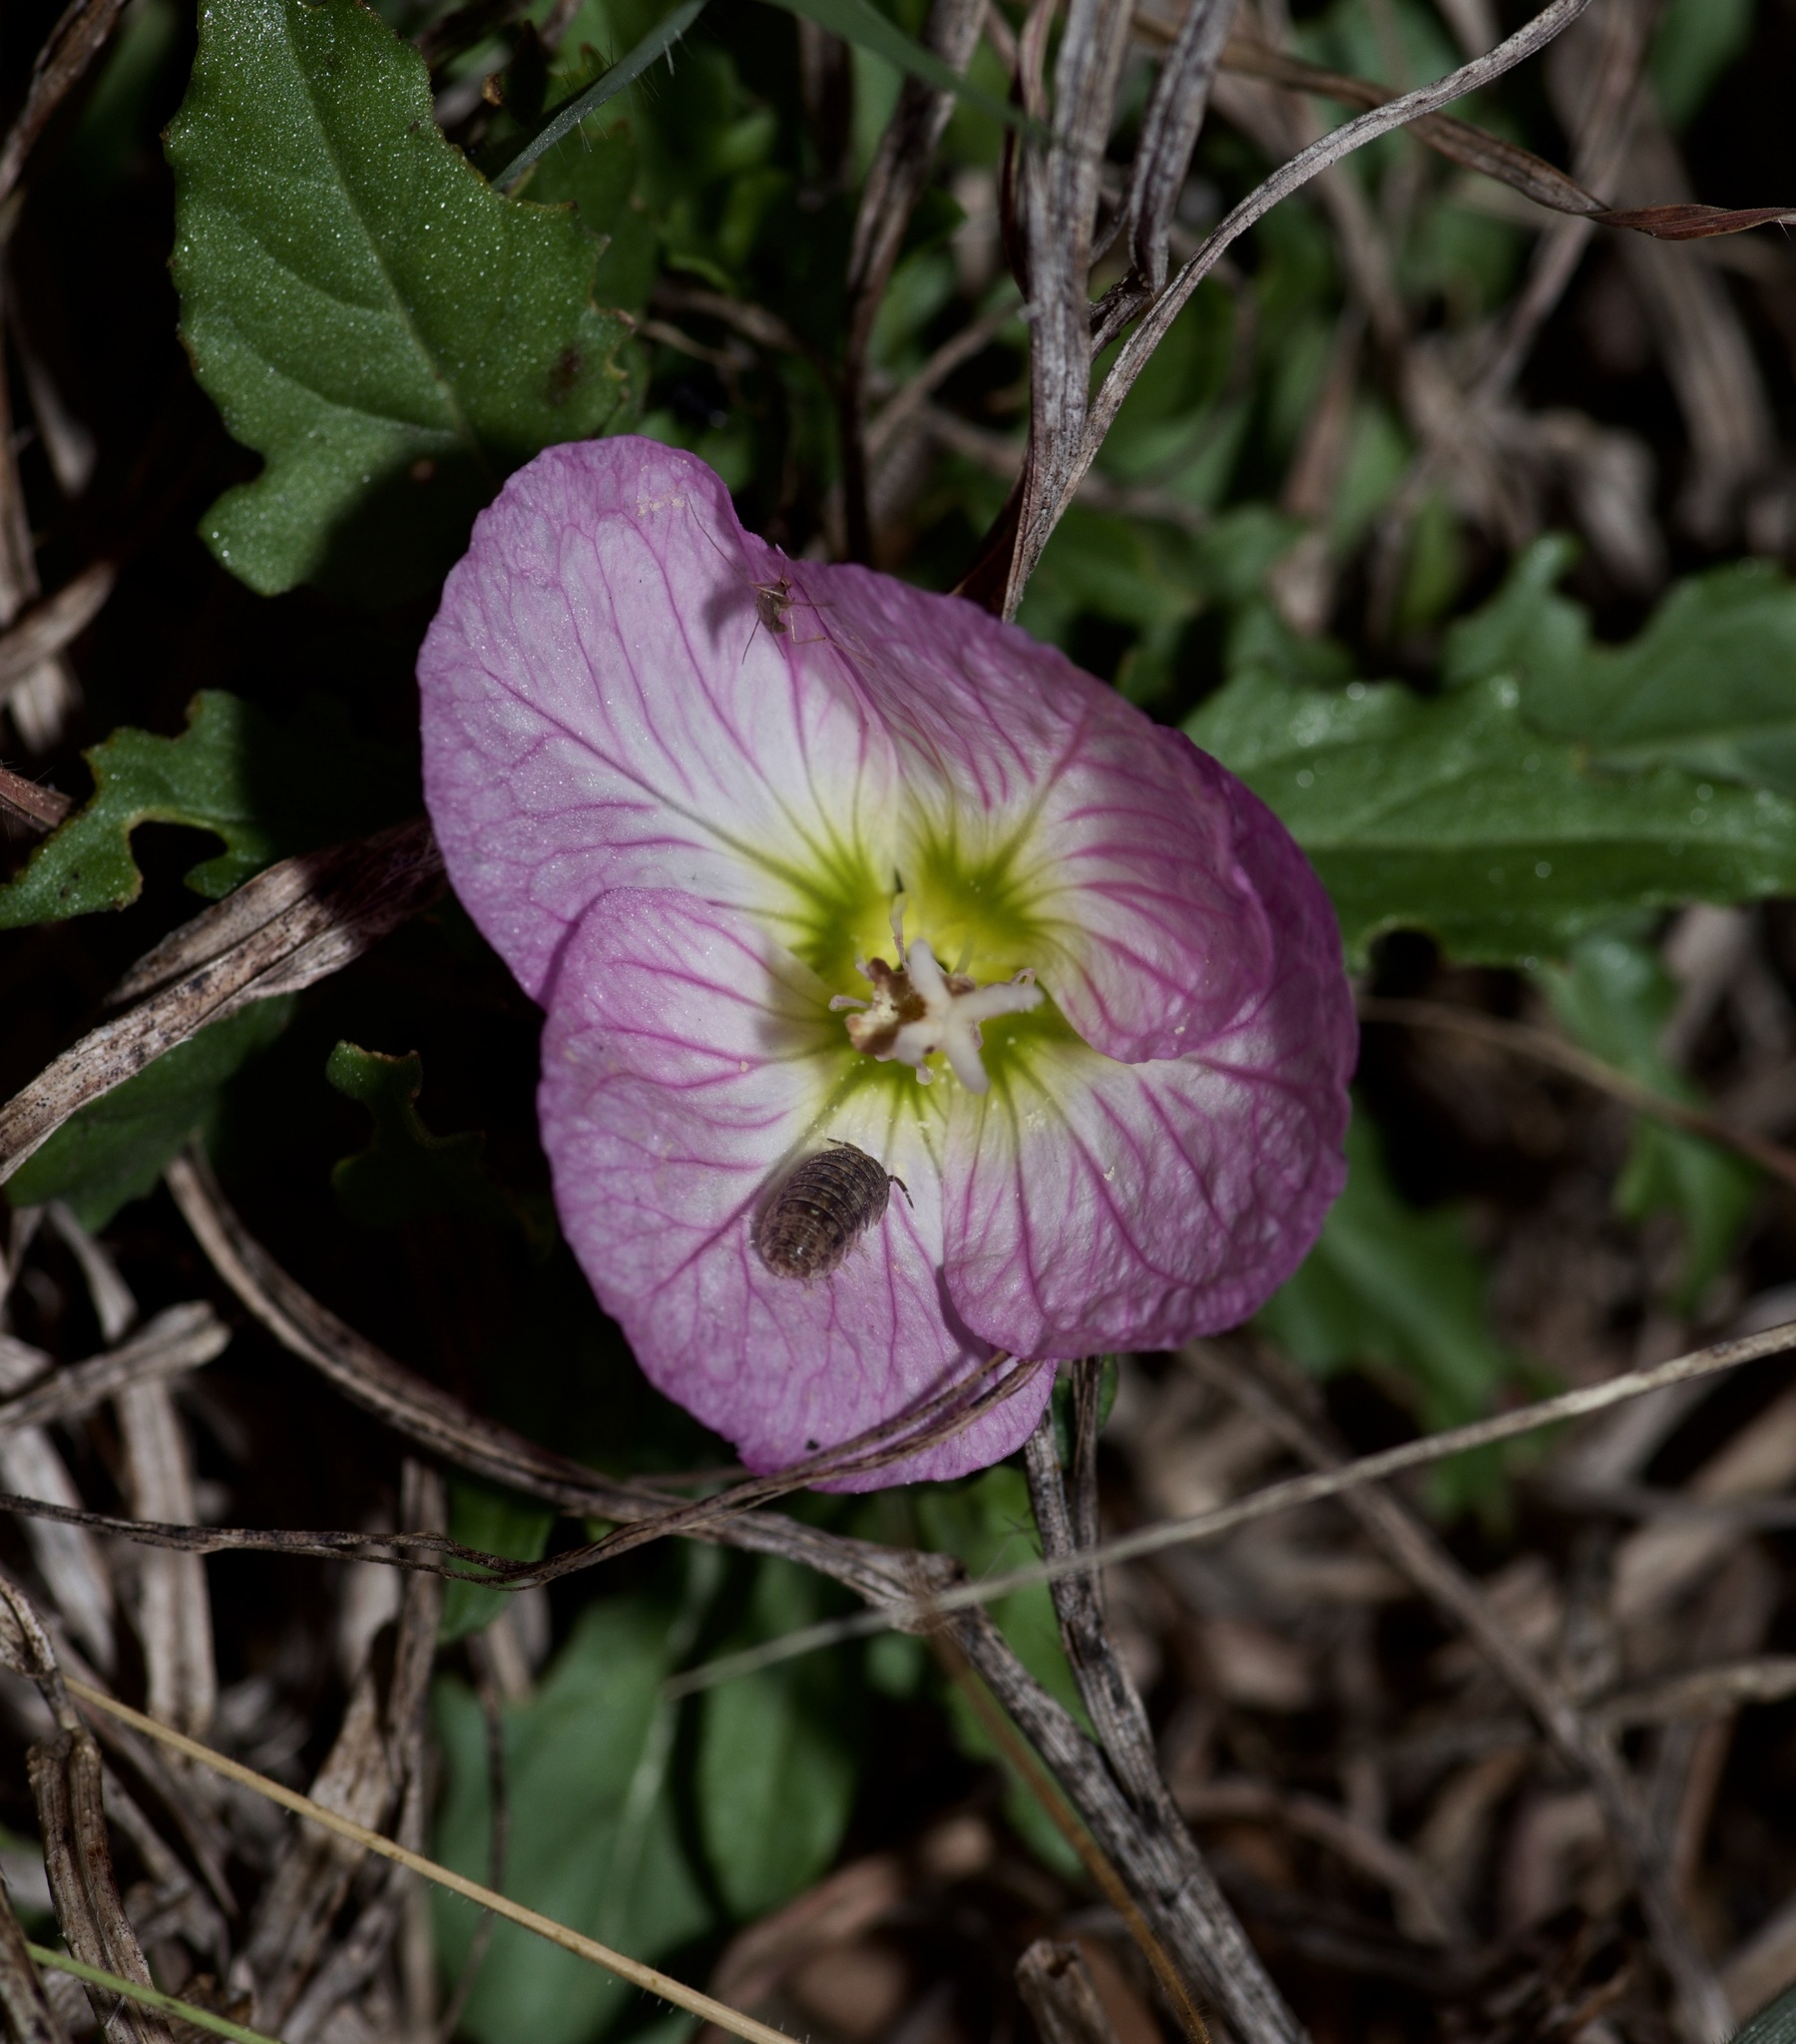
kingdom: Plantae
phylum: Tracheophyta
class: Magnoliopsida
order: Myrtales
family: Onagraceae
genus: Oenothera
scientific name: Oenothera speciosa
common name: White evening-primrose
